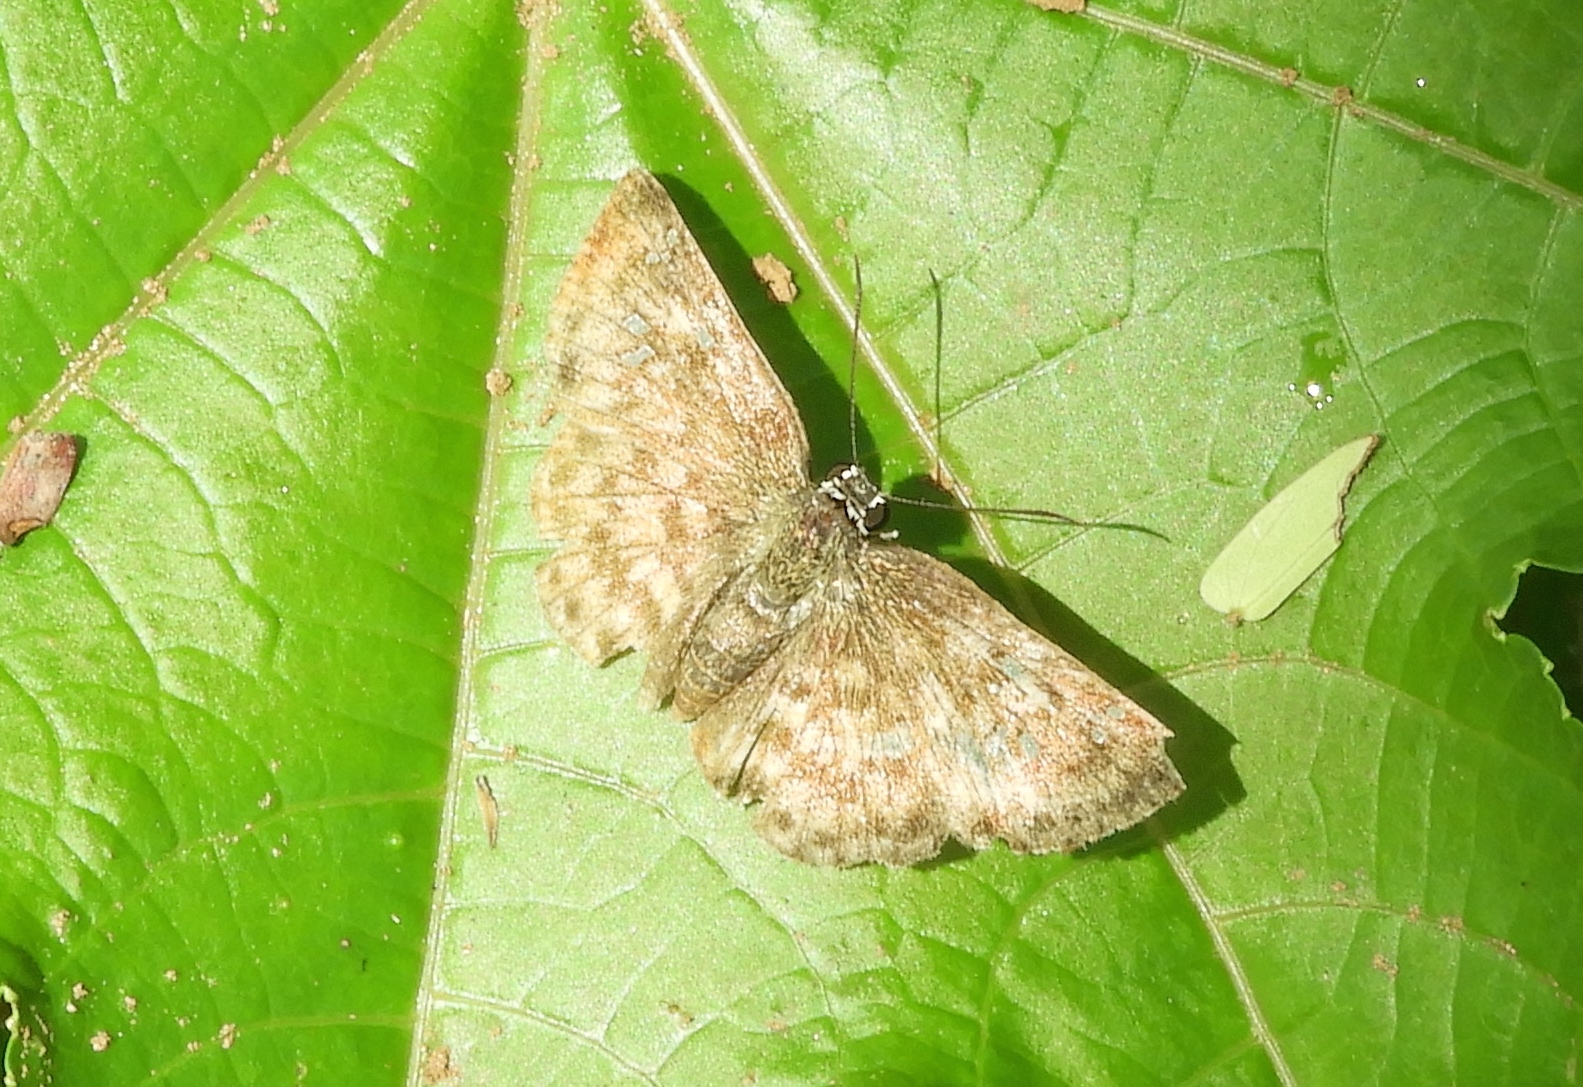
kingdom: Animalia
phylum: Arthropoda
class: Insecta
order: Lepidoptera
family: Hesperiidae
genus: Canesia
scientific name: Canesia canescens
